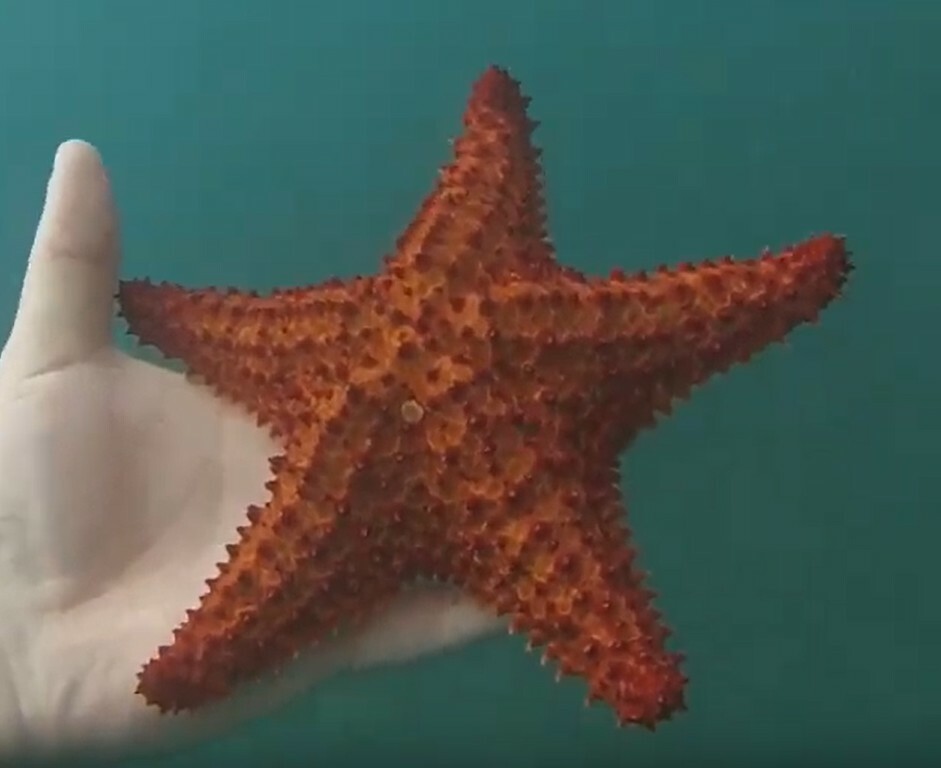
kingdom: Animalia
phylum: Echinodermata
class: Asteroidea
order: Valvatida
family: Oreasteridae
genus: Oreaster
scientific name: Oreaster reticulatus
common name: Cushion sea star
